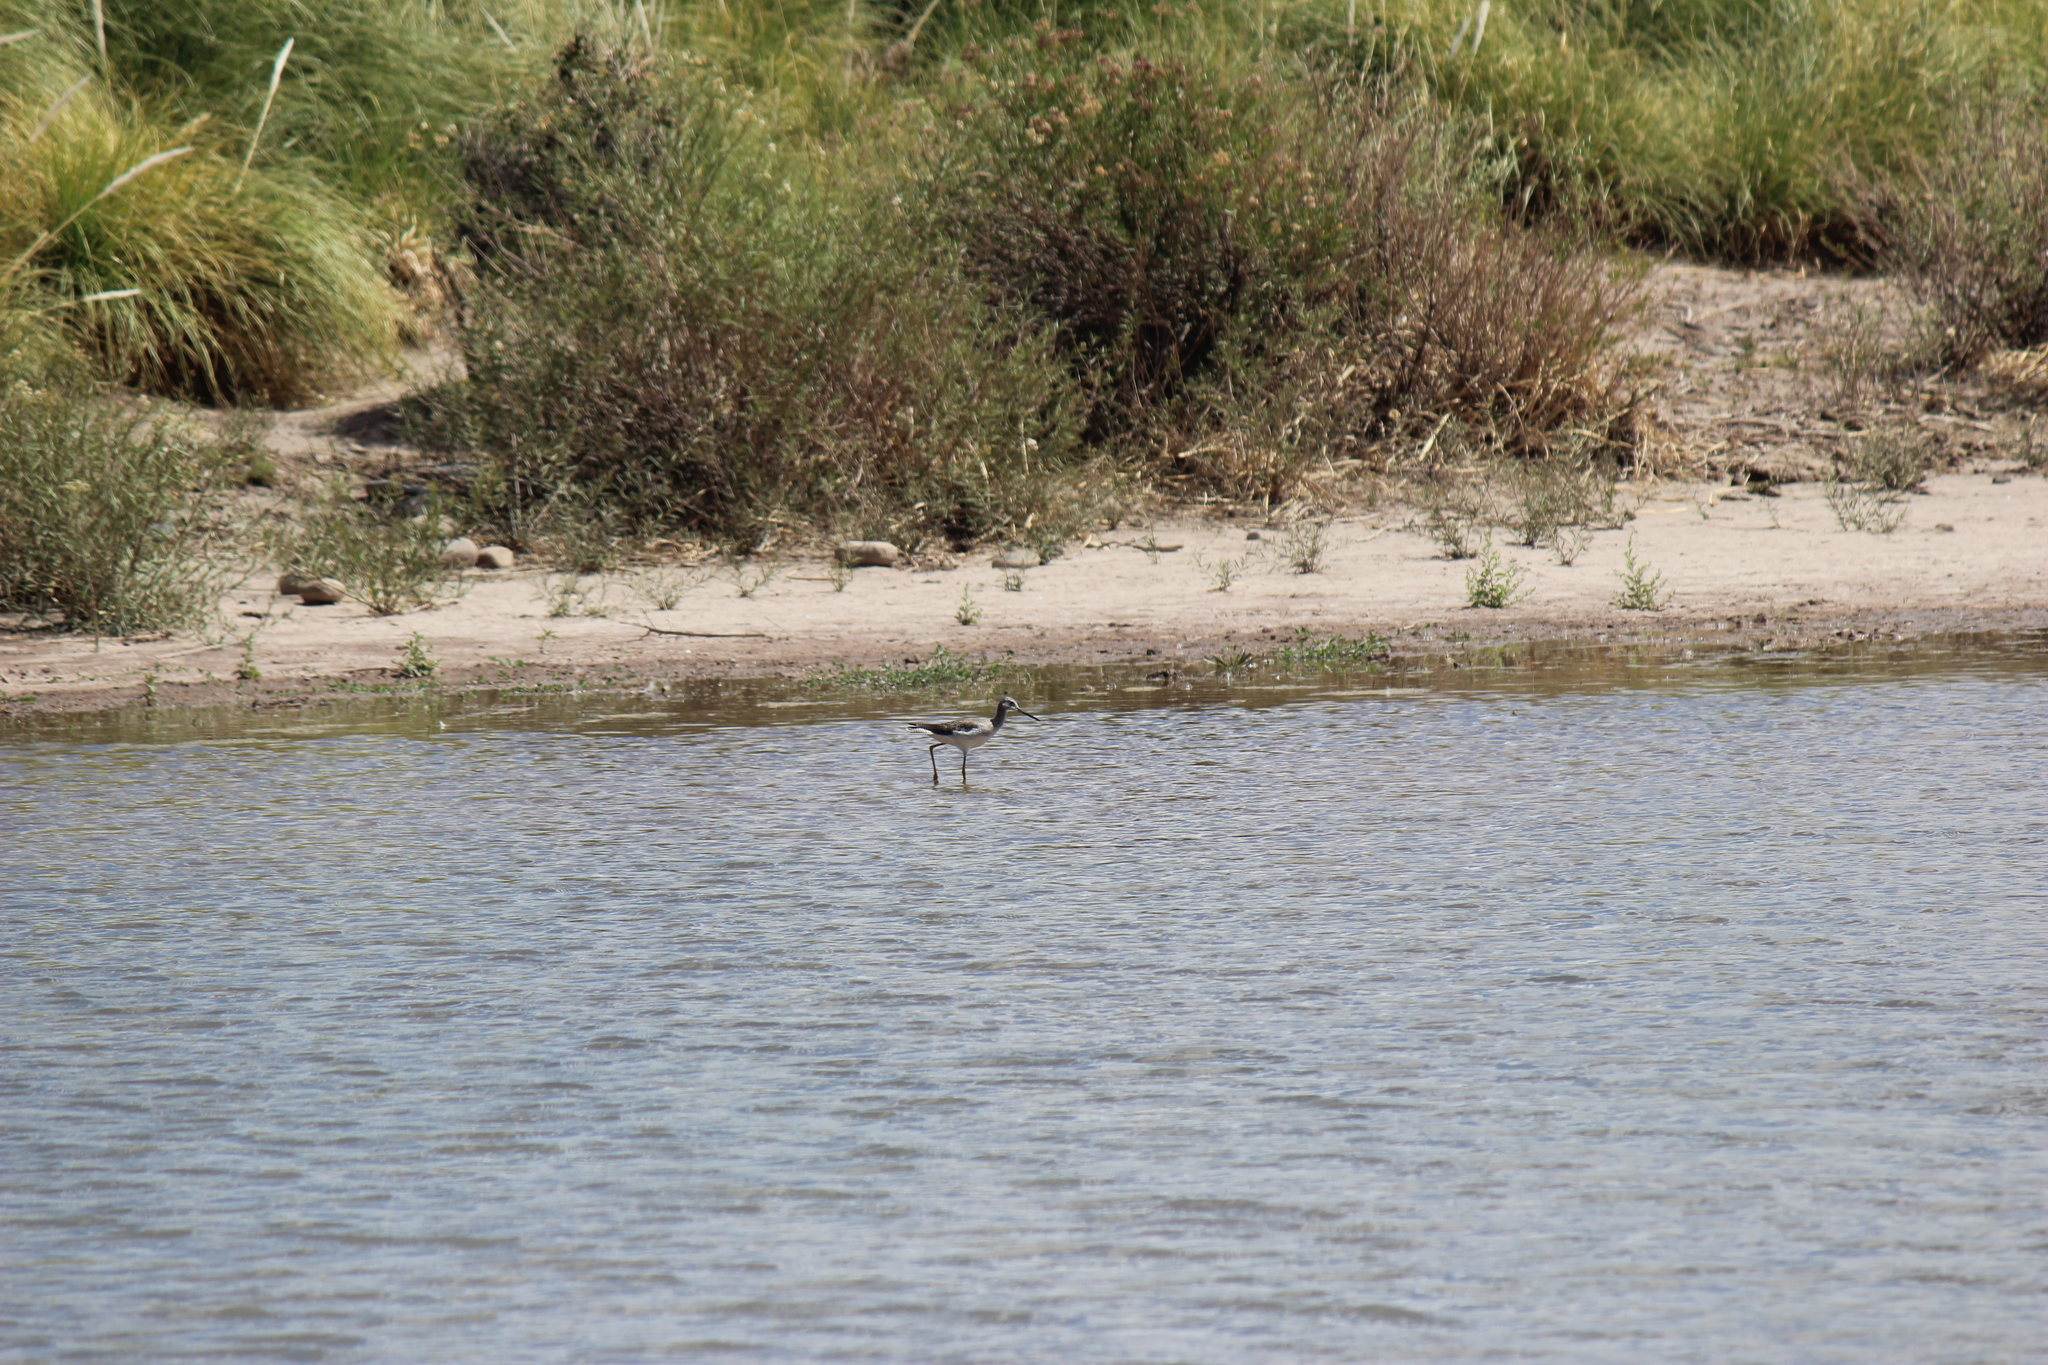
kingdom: Animalia
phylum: Chordata
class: Aves
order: Charadriiformes
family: Scolopacidae
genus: Tringa
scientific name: Tringa melanoleuca
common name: Greater yellowlegs
